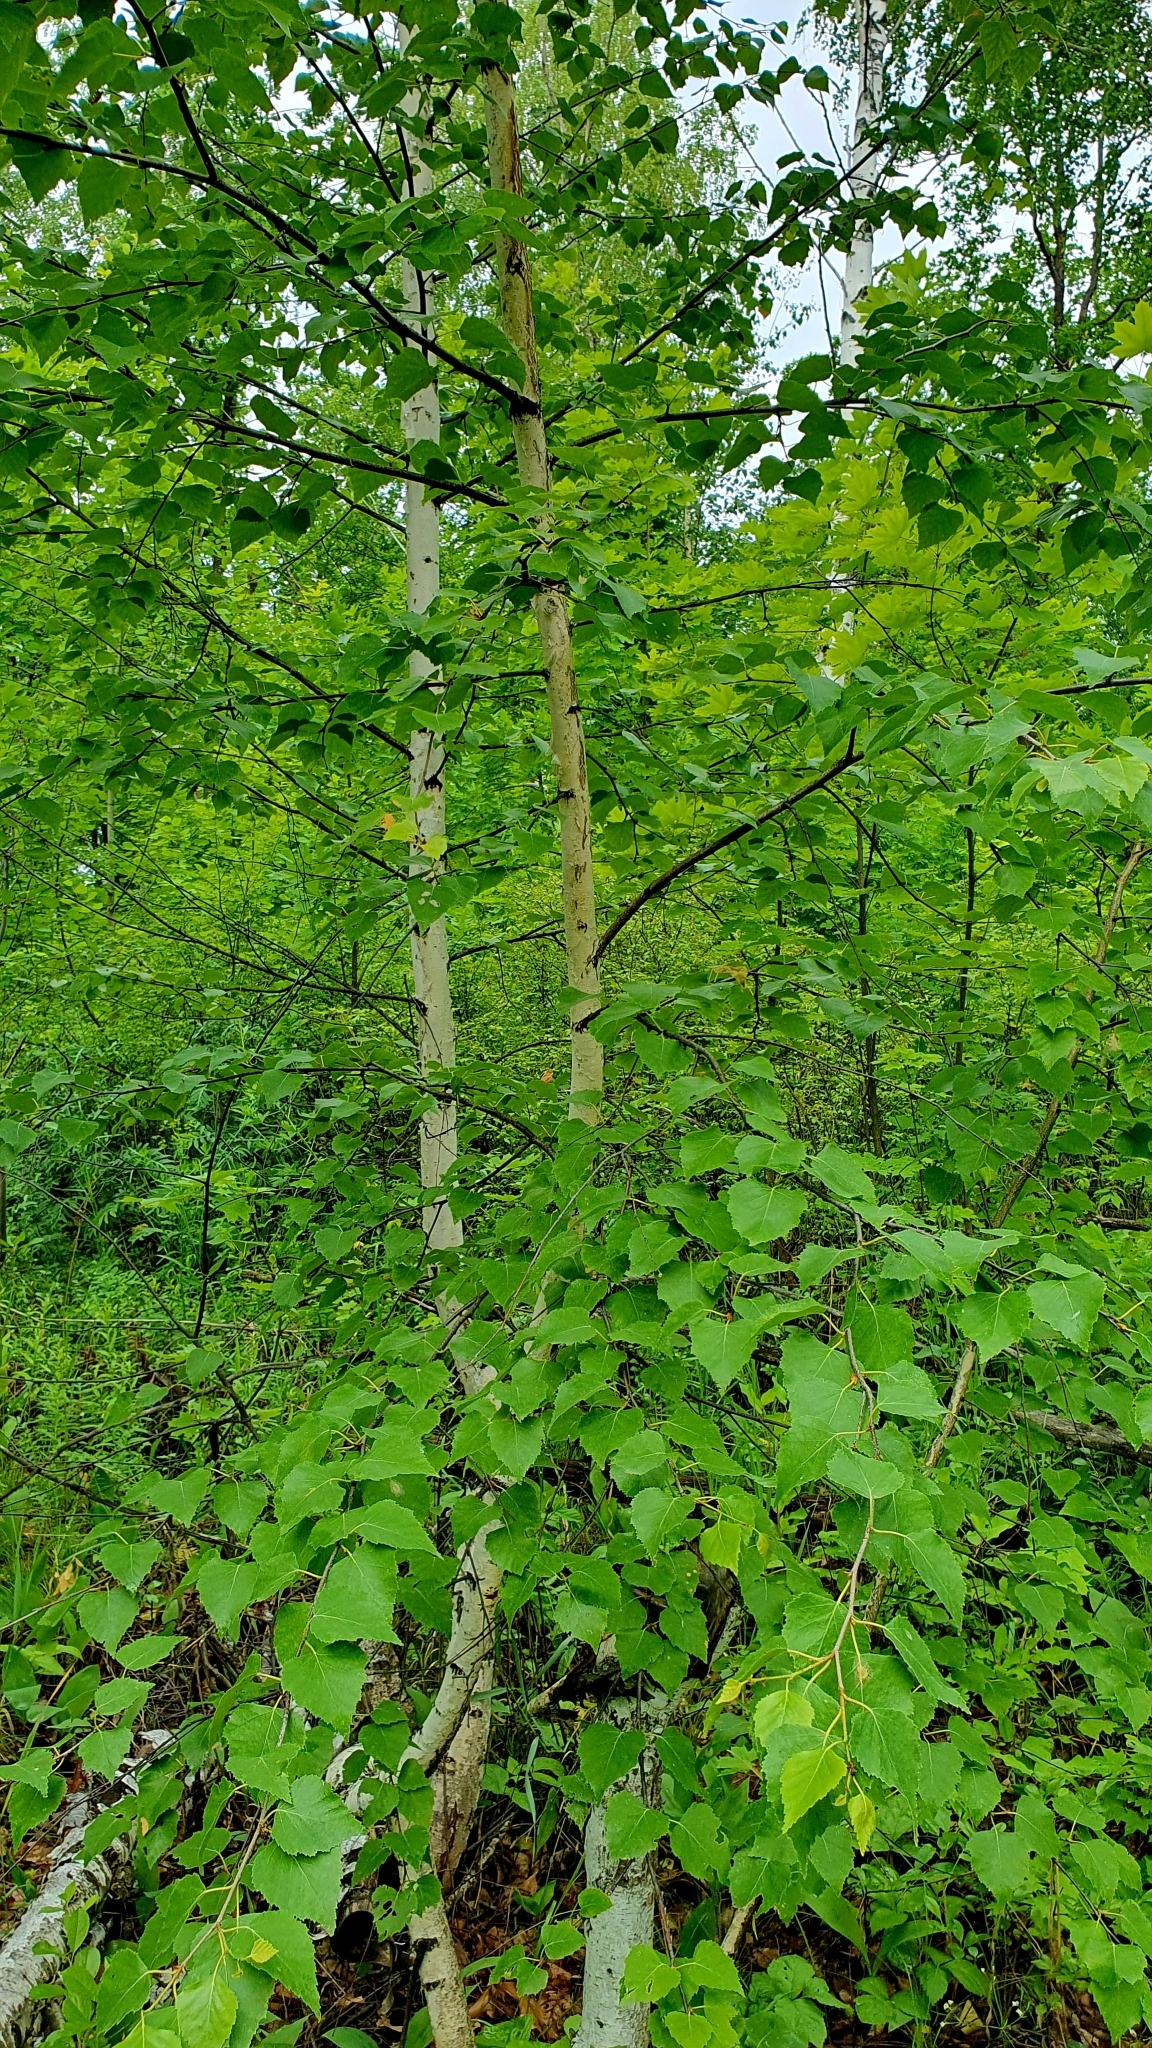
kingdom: Plantae
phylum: Tracheophyta
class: Magnoliopsida
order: Fagales
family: Betulaceae
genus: Betula
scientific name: Betula pendula
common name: Silver birch
